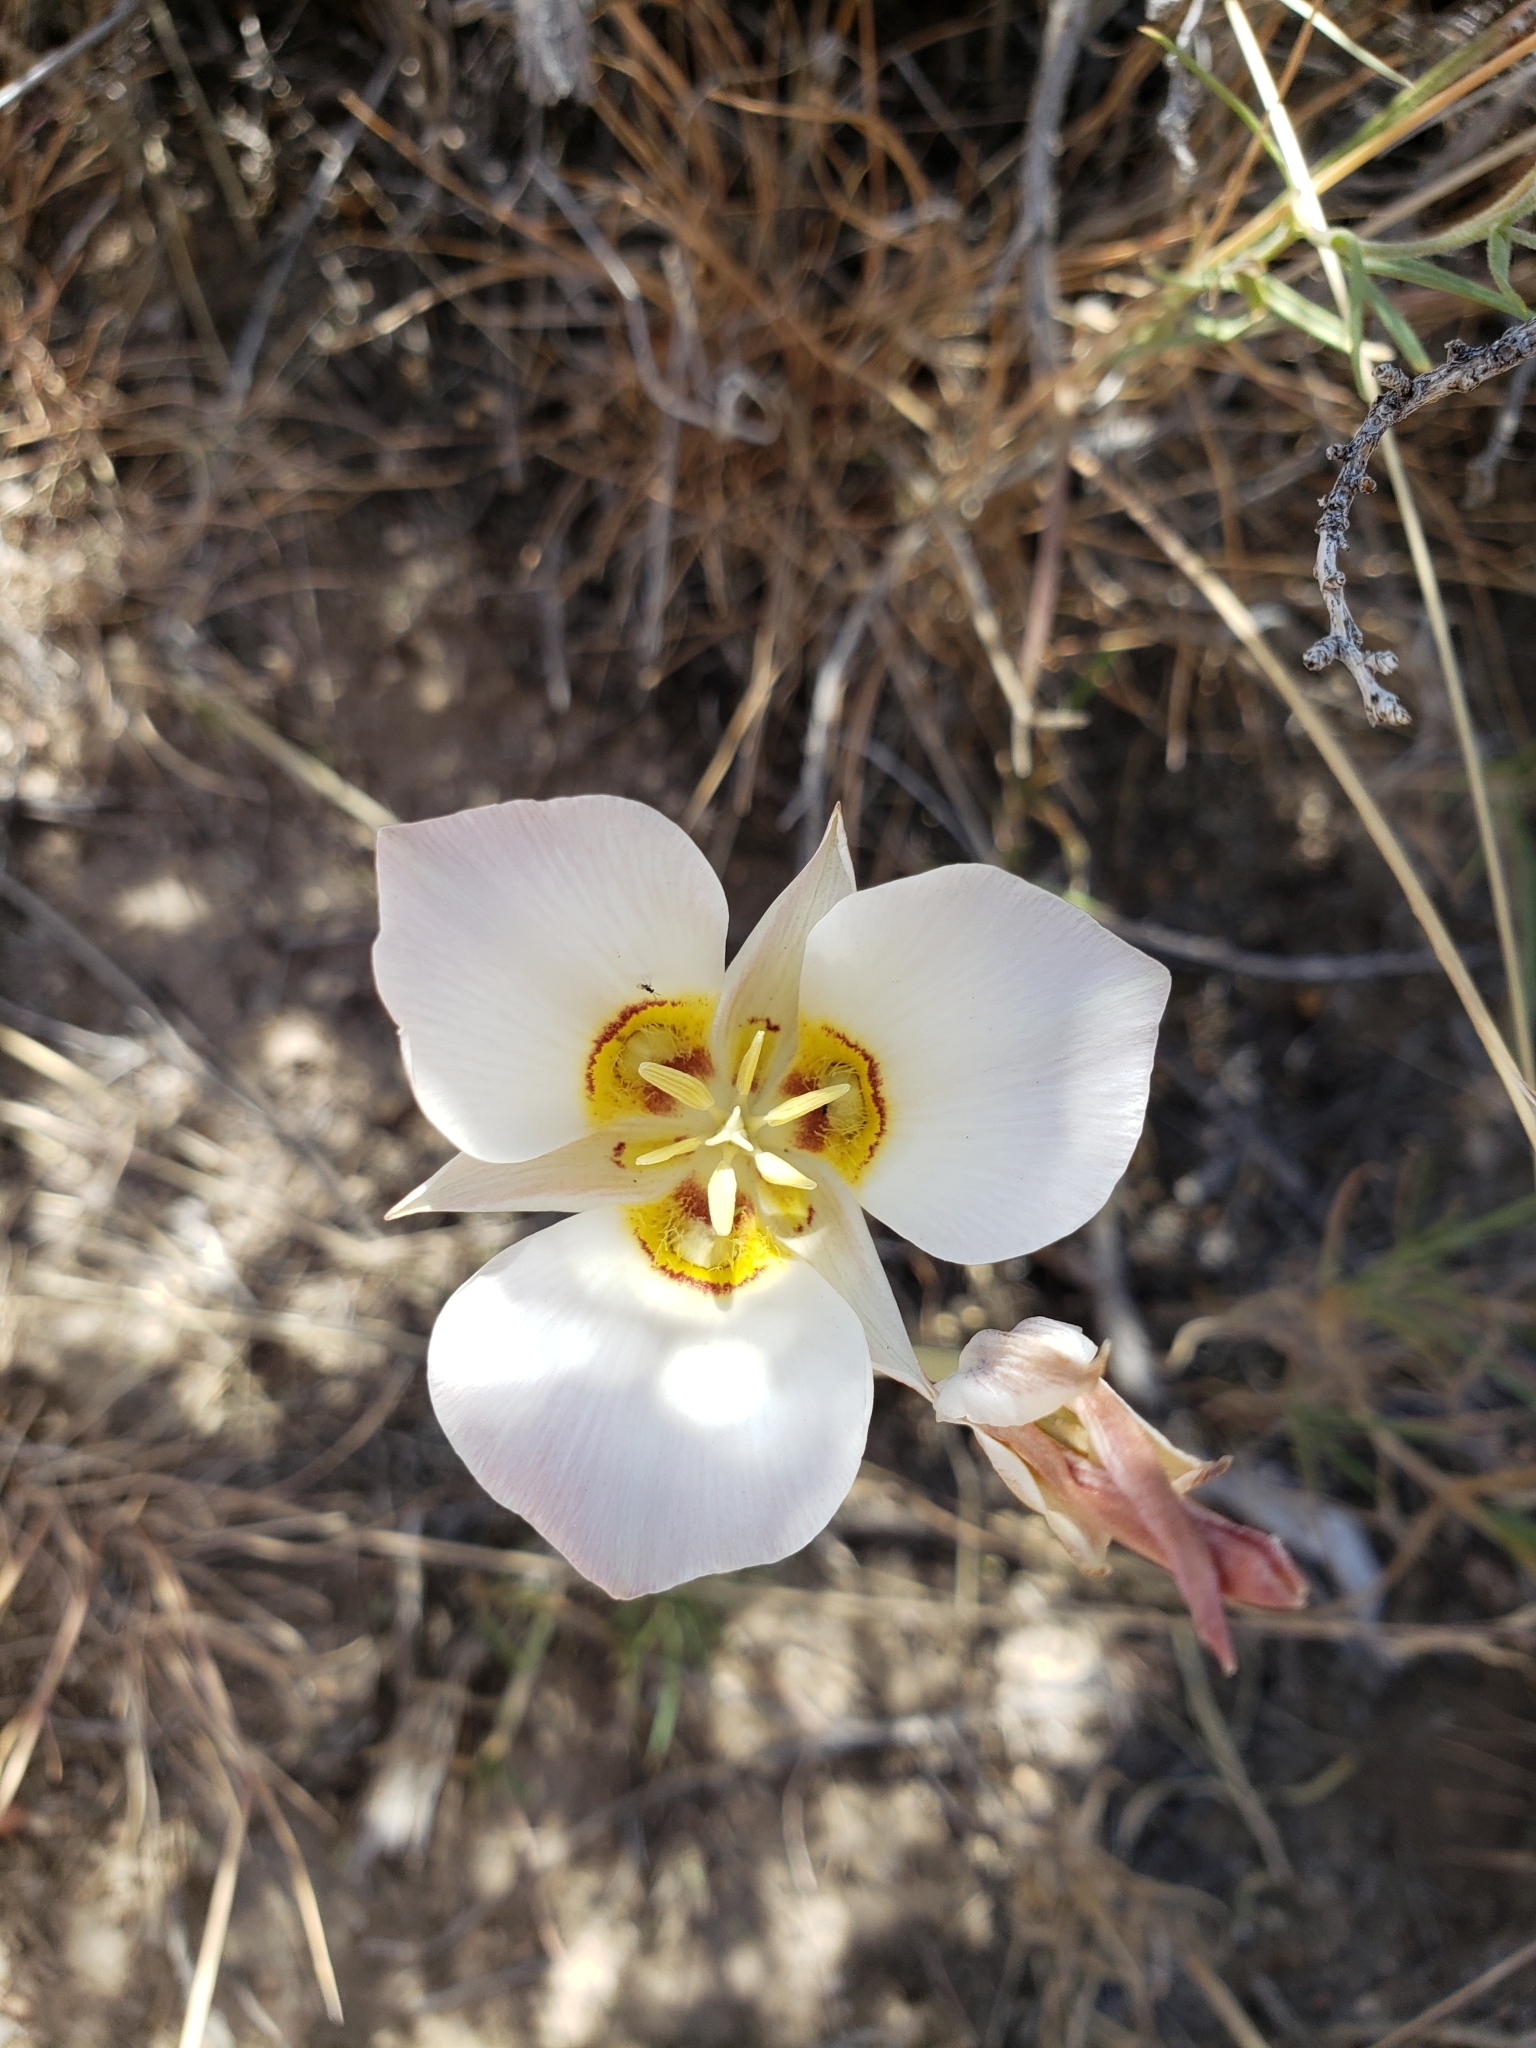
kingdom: Plantae
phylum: Tracheophyta
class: Liliopsida
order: Liliales
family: Liliaceae
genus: Calochortus
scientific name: Calochortus nuttallii
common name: Sego-lily
